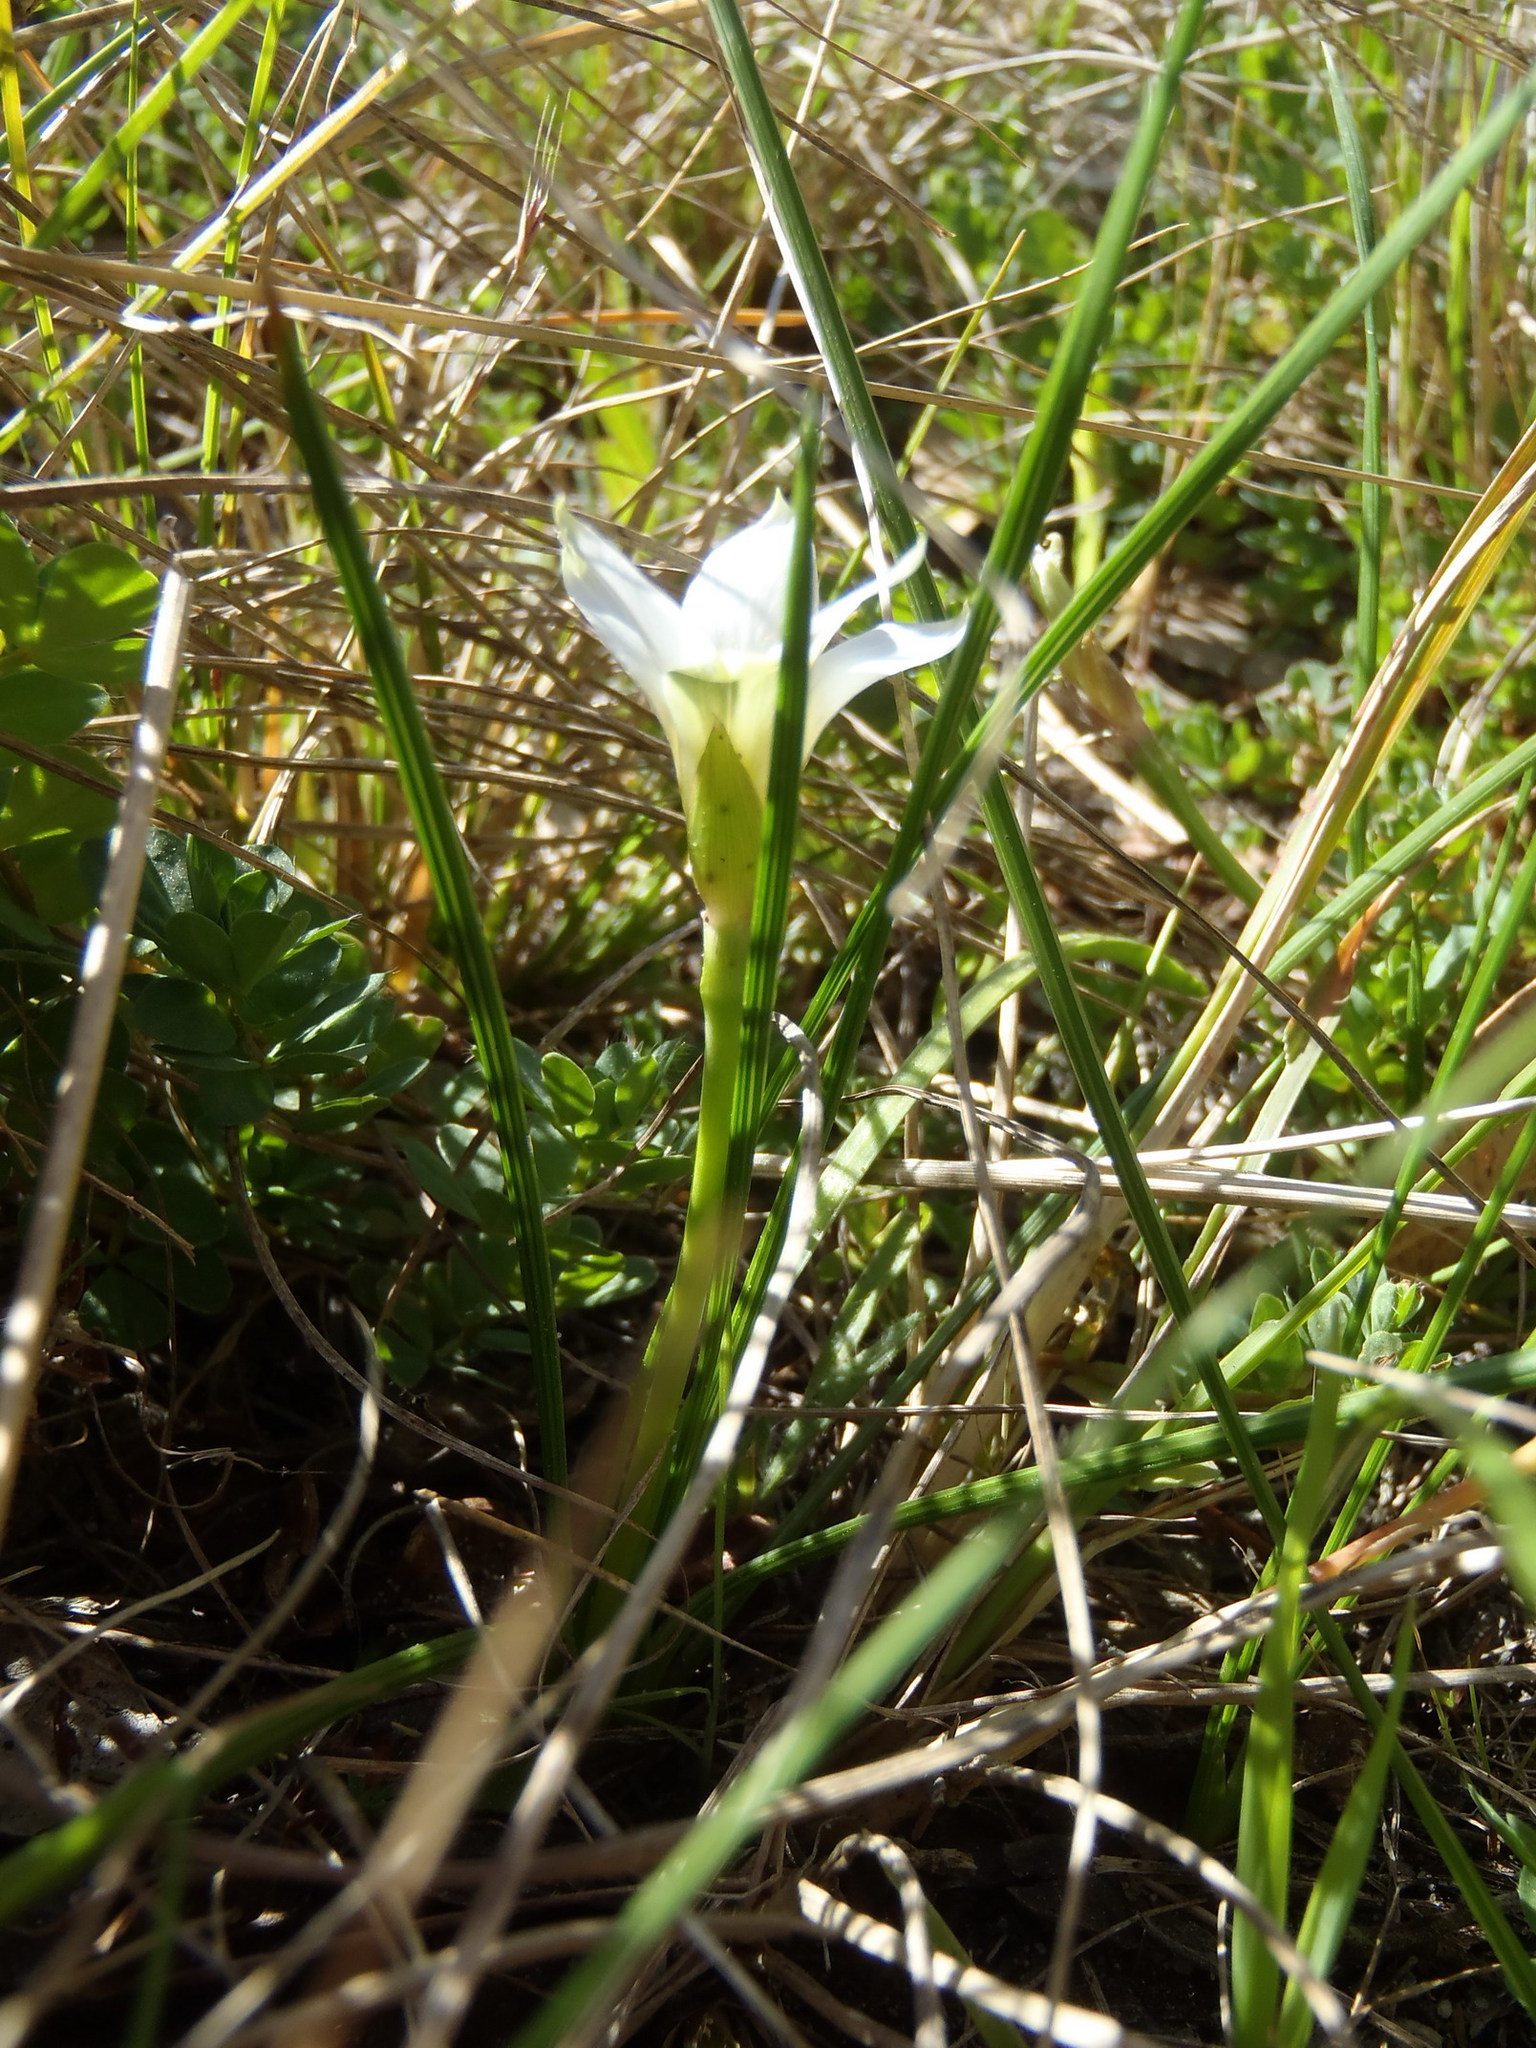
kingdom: Plantae
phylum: Tracheophyta
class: Liliopsida
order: Asparagales
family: Iridaceae
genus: Romulea
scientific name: Romulea flava
